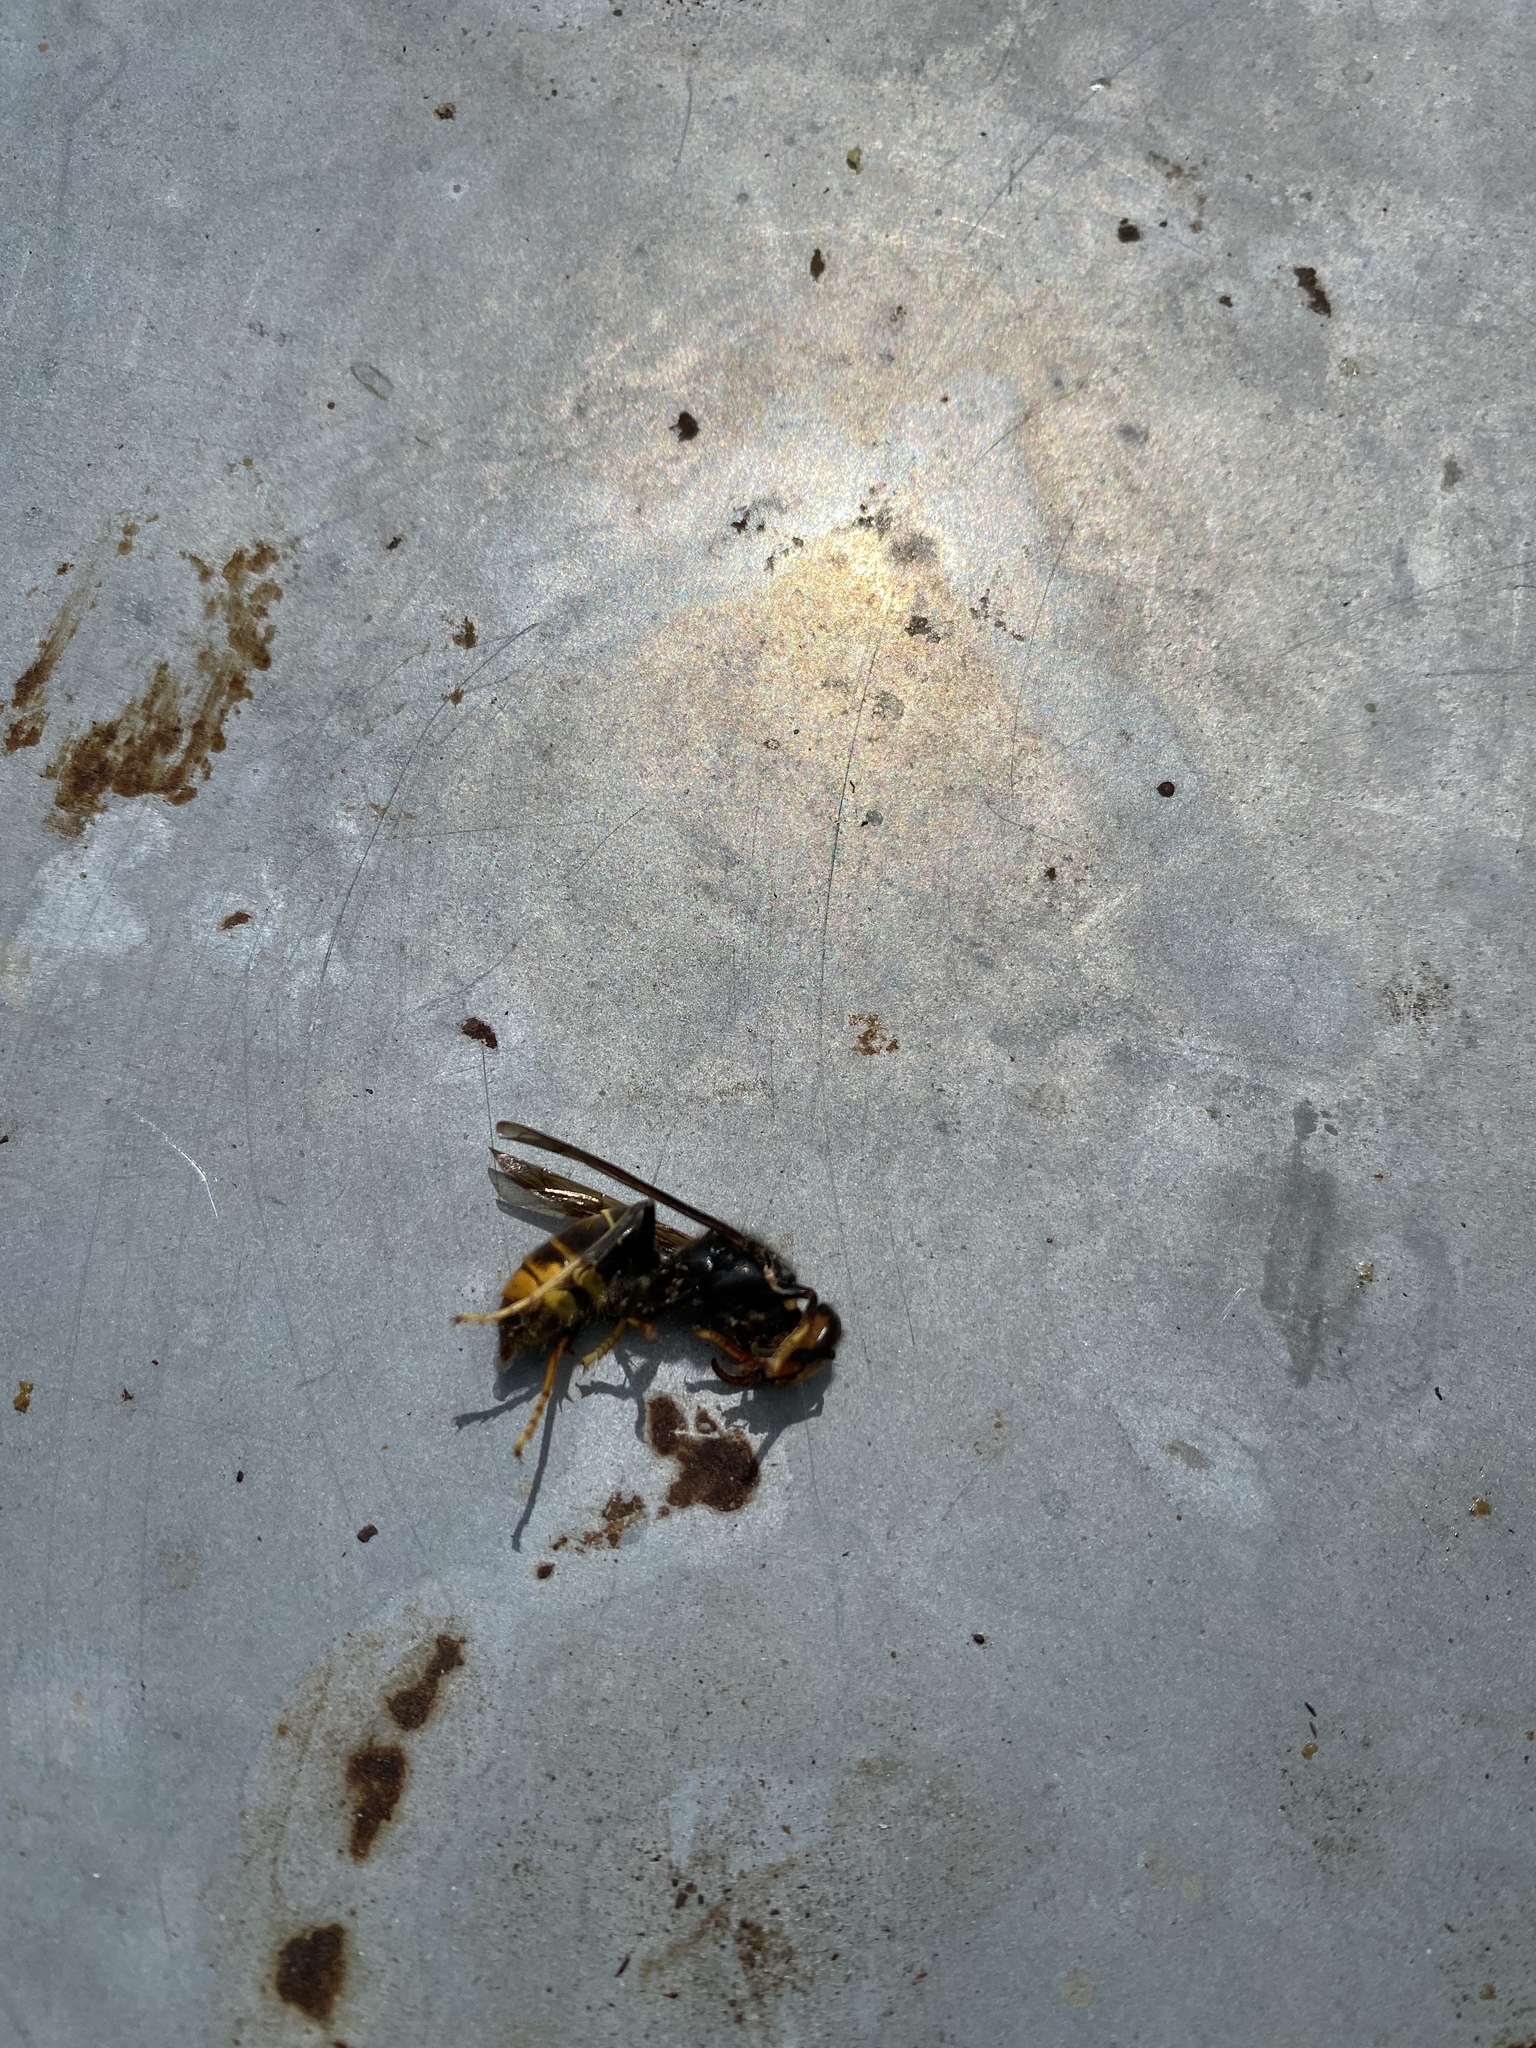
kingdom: Animalia
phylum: Arthropoda
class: Insecta
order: Hymenoptera
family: Vespidae
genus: Vespa
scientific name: Vespa velutina
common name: Asian hornet
